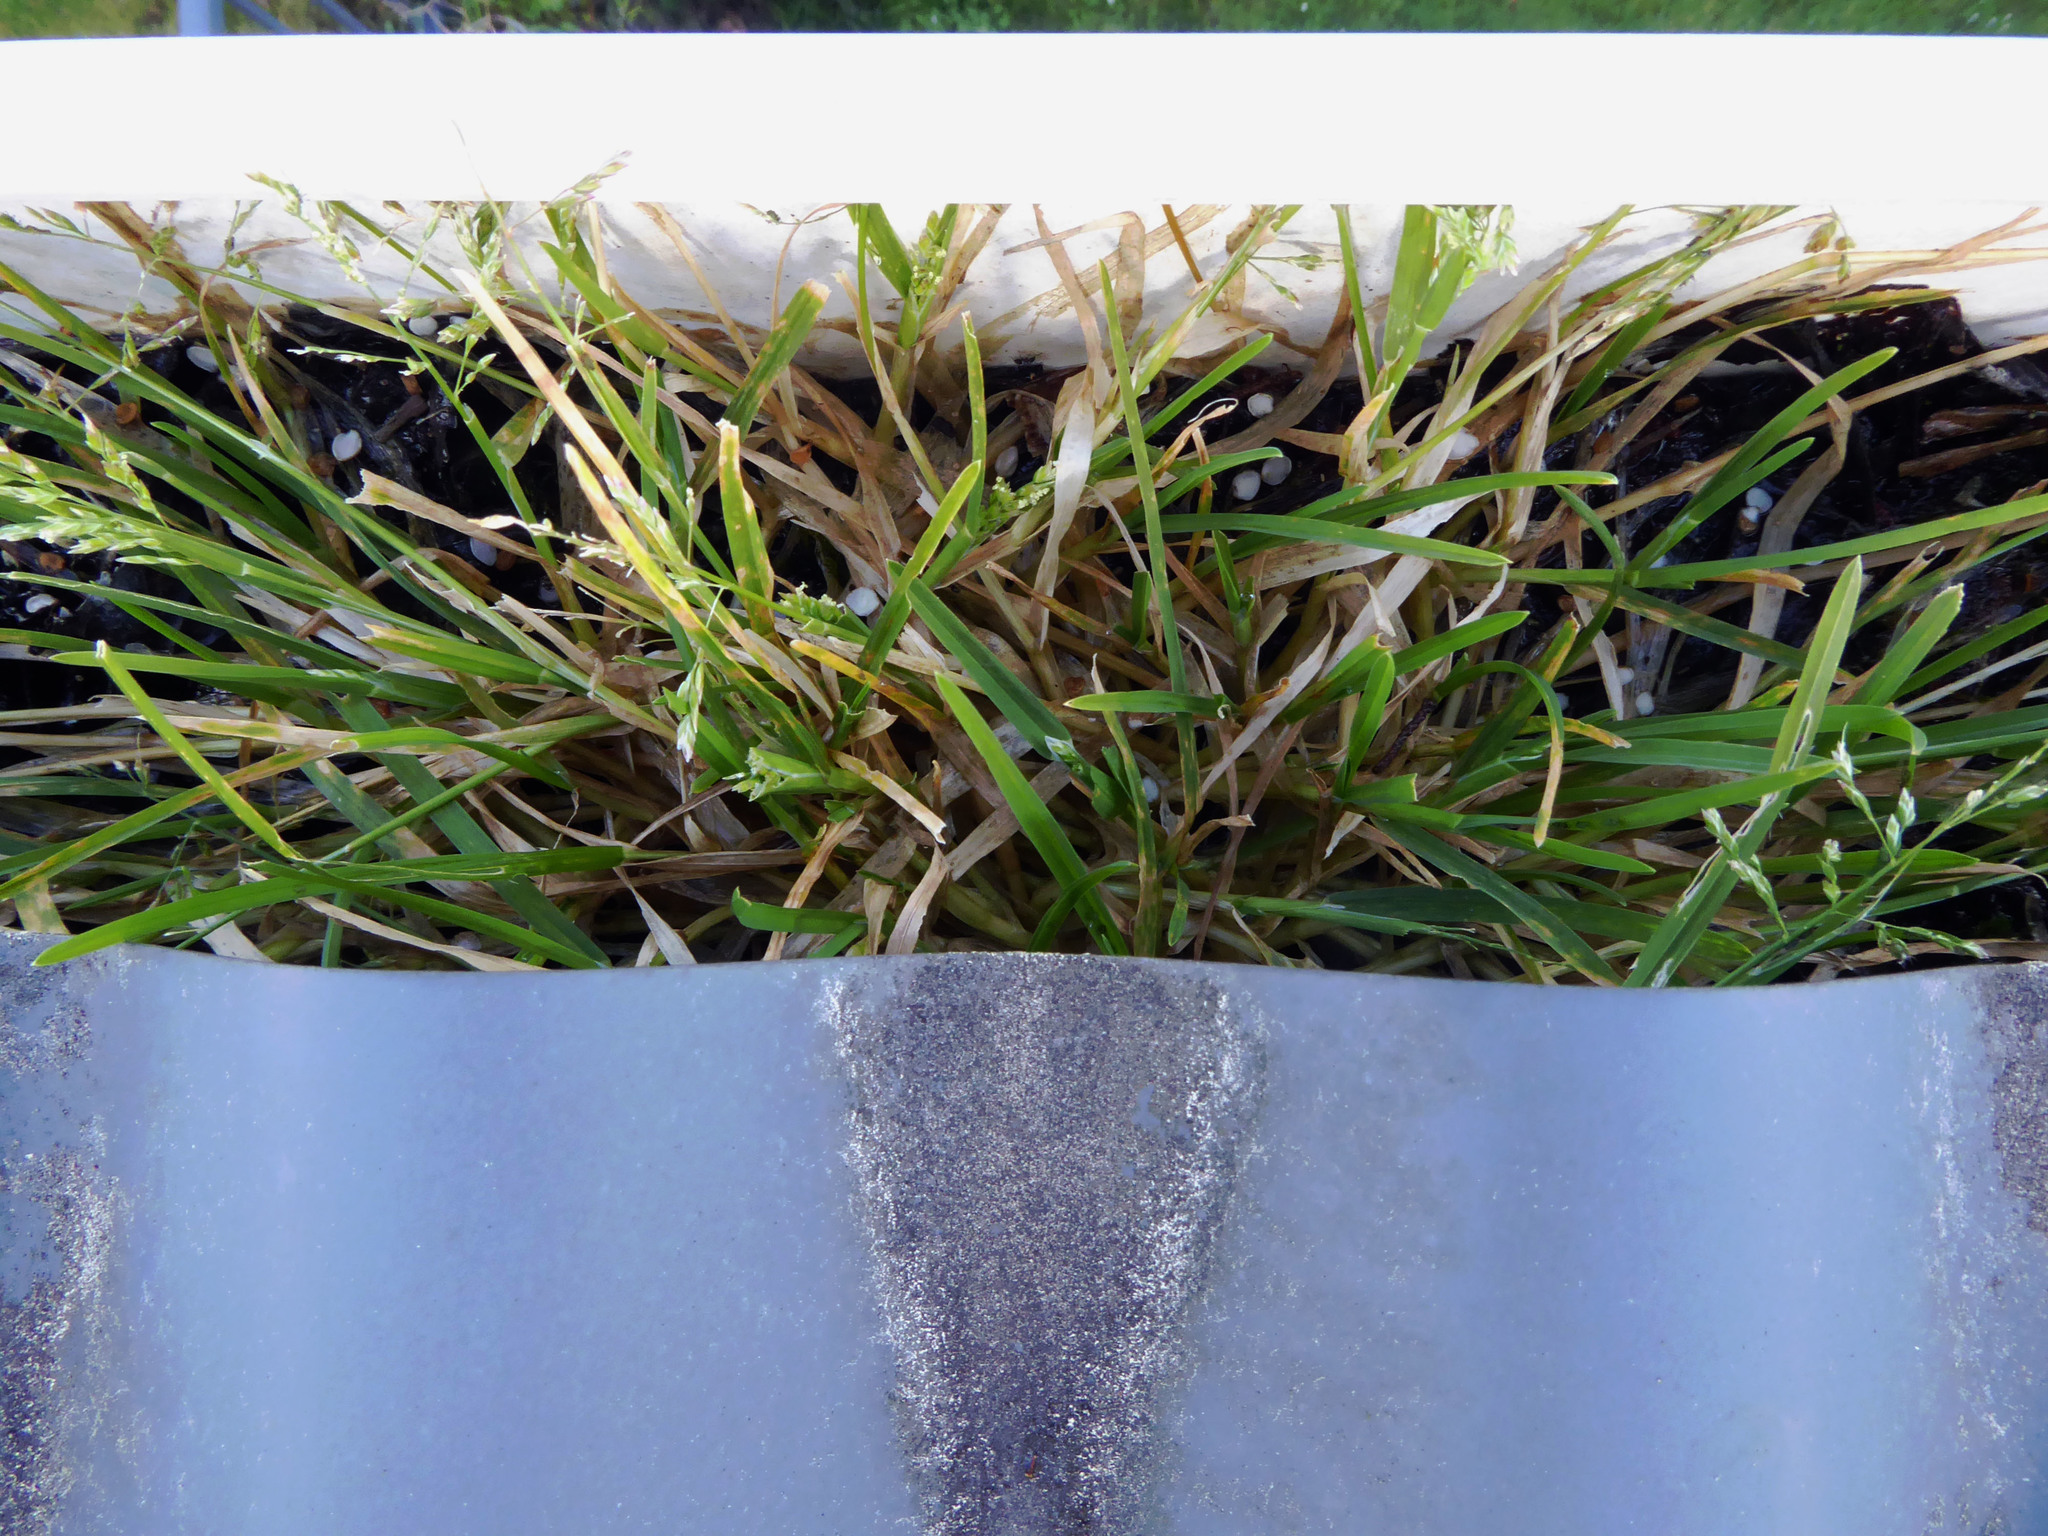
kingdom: Plantae
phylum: Tracheophyta
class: Liliopsida
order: Poales
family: Poaceae
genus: Poa
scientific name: Poa annua
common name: Annual bluegrass
